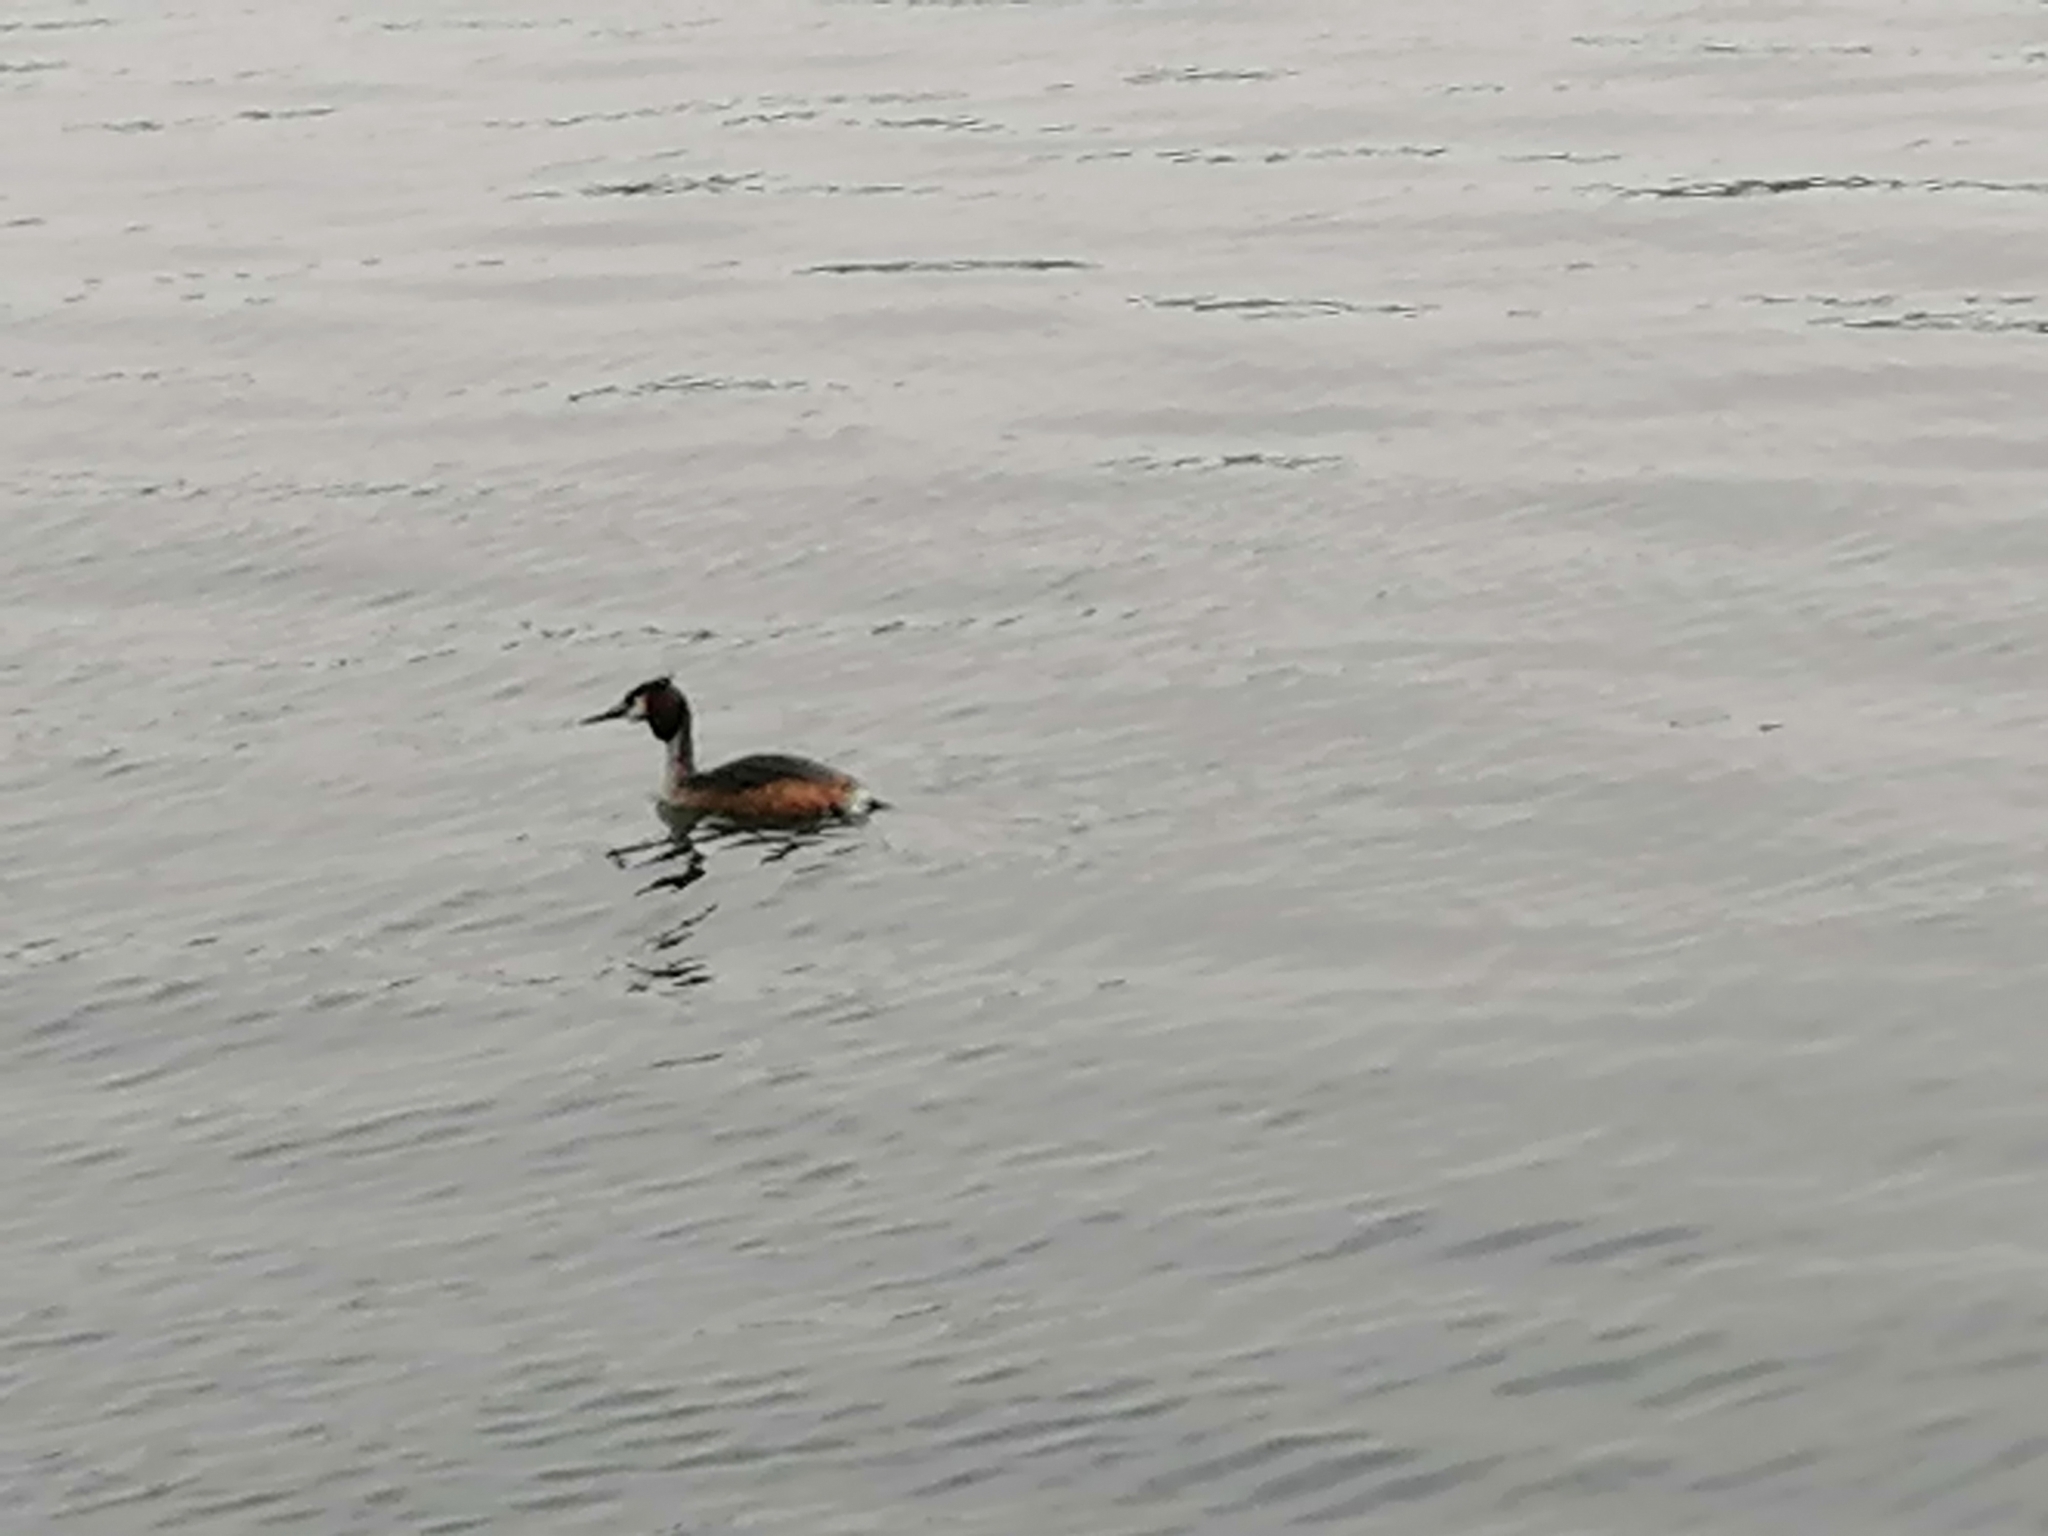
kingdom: Animalia
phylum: Chordata
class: Aves
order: Podicipediformes
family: Podicipedidae
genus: Podiceps
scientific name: Podiceps cristatus
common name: Great crested grebe
